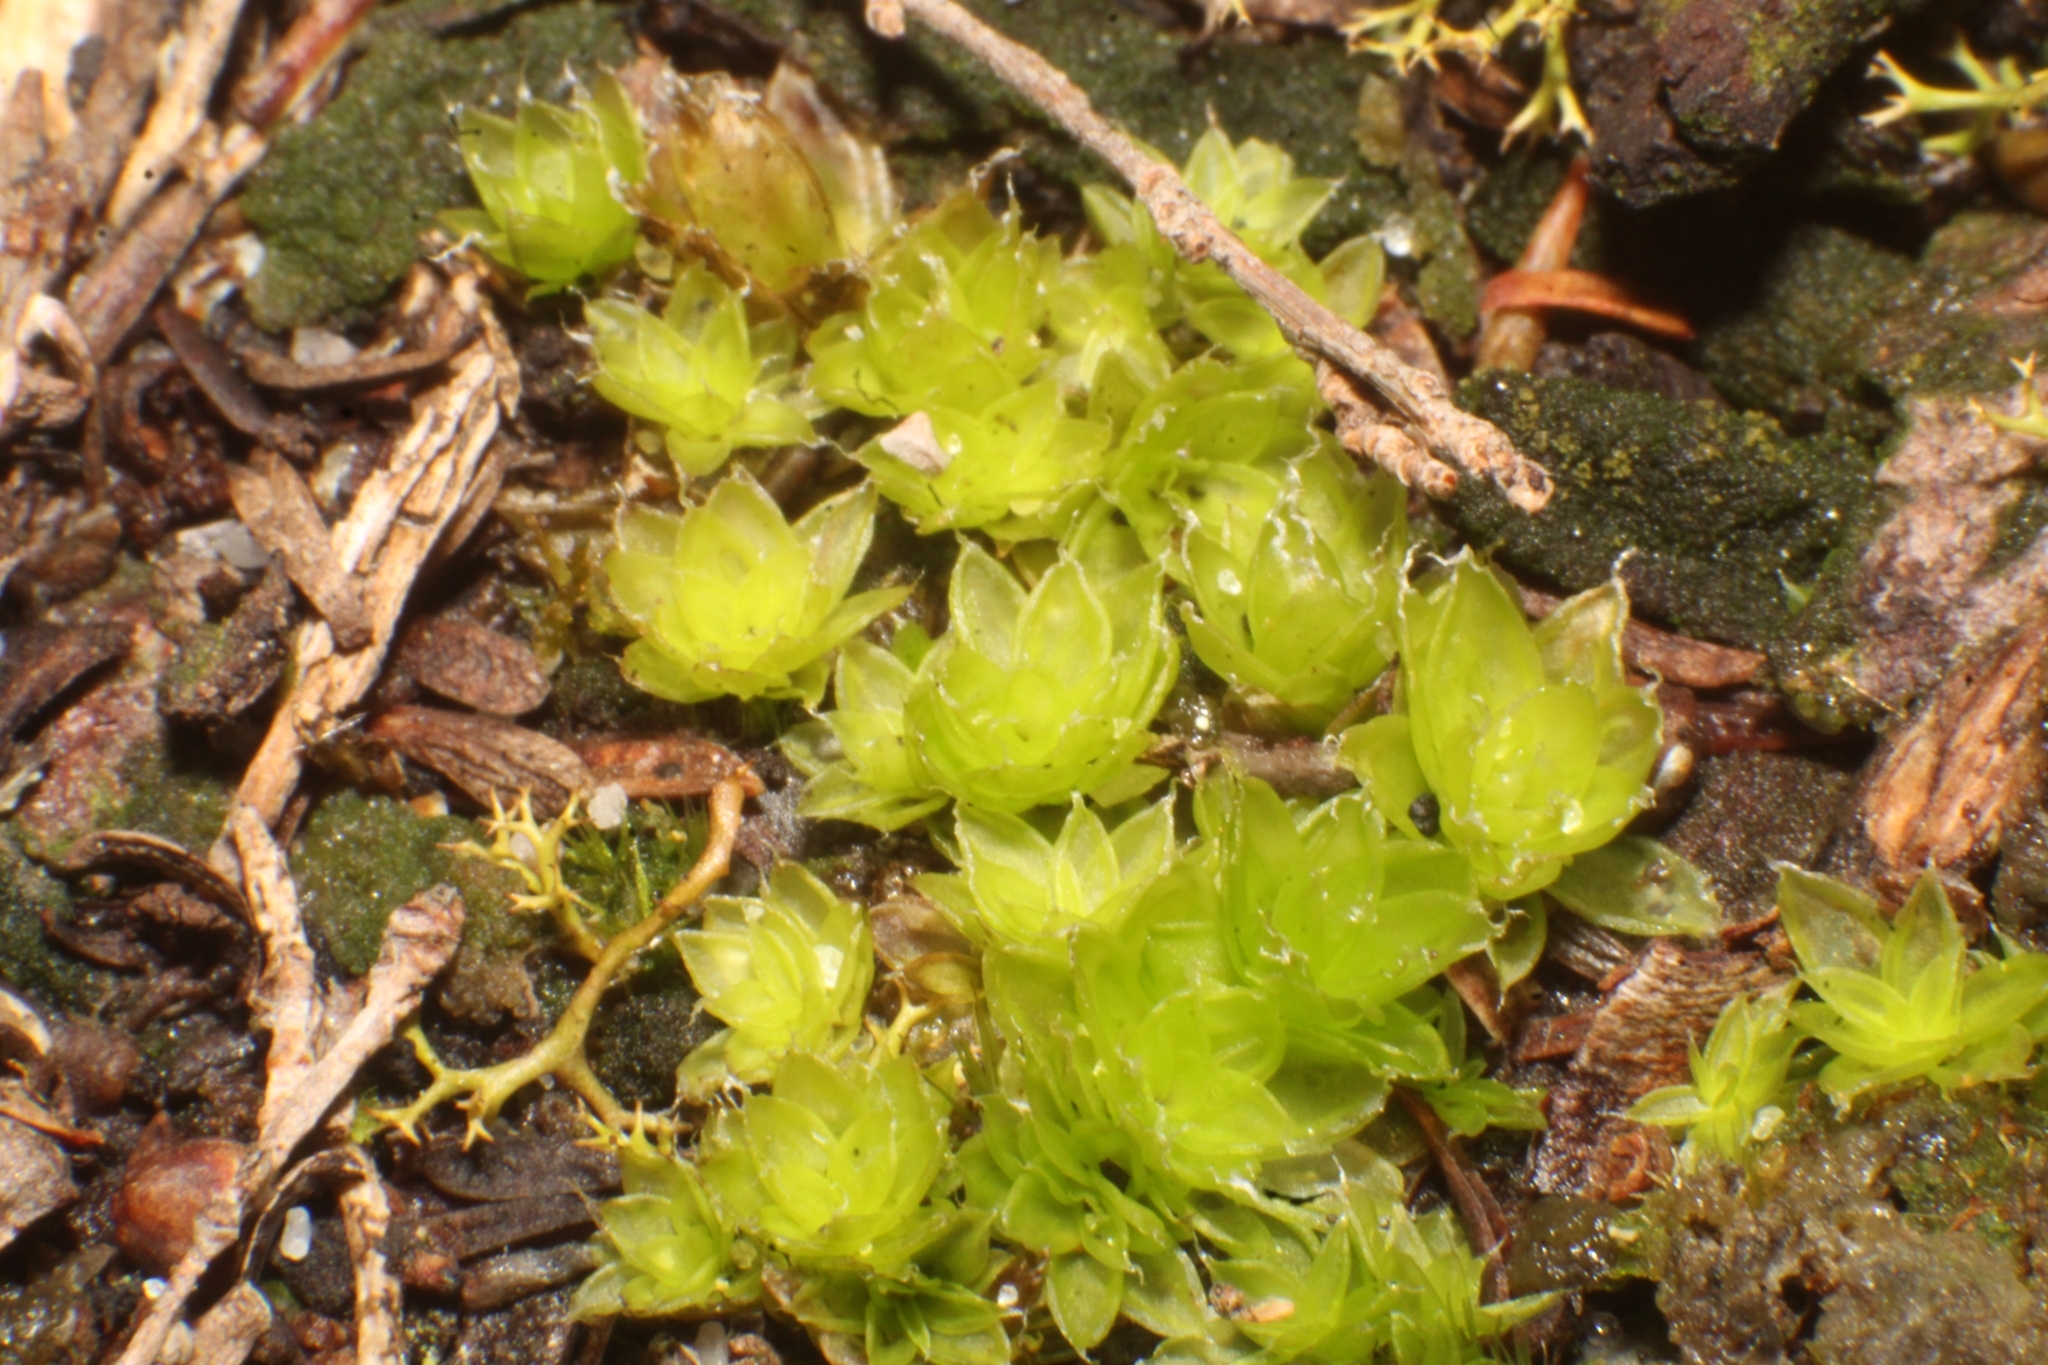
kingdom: Plantae
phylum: Bryophyta
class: Bryopsida
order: Pottiales
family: Pleurophascaceae
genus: Pleurophascum
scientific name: Pleurophascum occidentale
